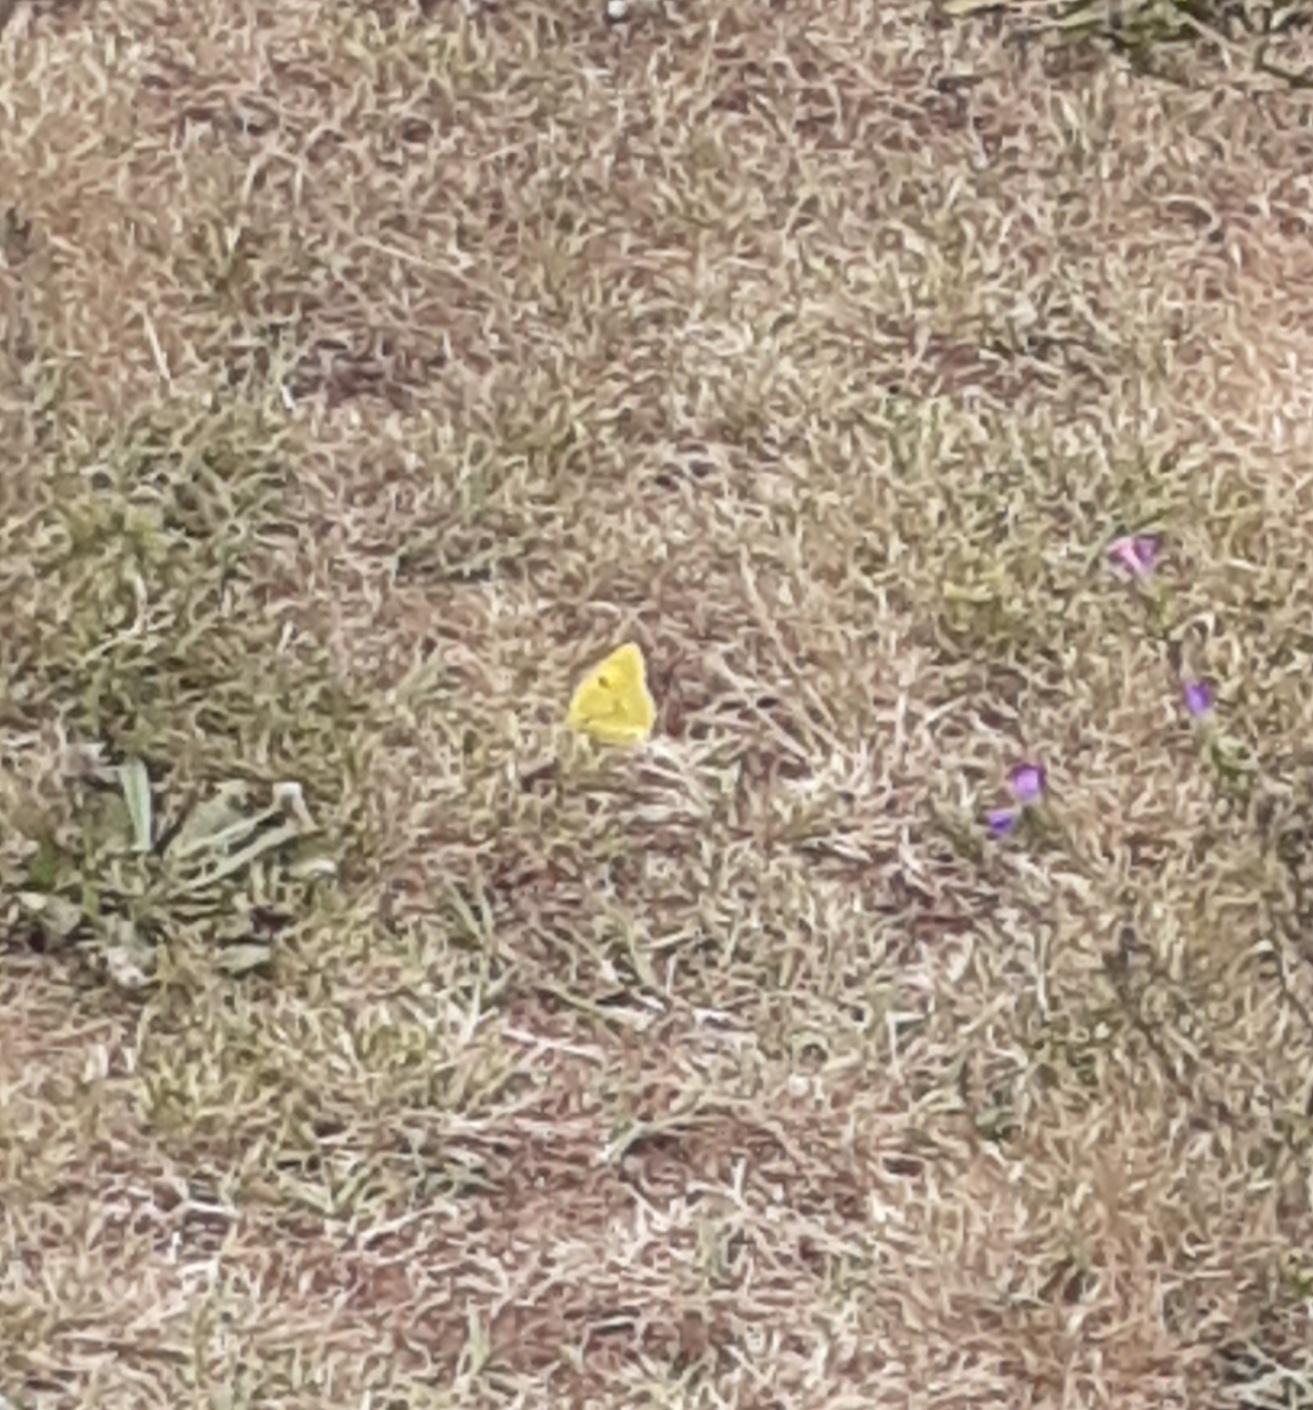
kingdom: Animalia
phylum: Arthropoda
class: Insecta
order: Lepidoptera
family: Pieridae
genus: Colias
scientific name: Colias croceus
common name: Clouded yellow
